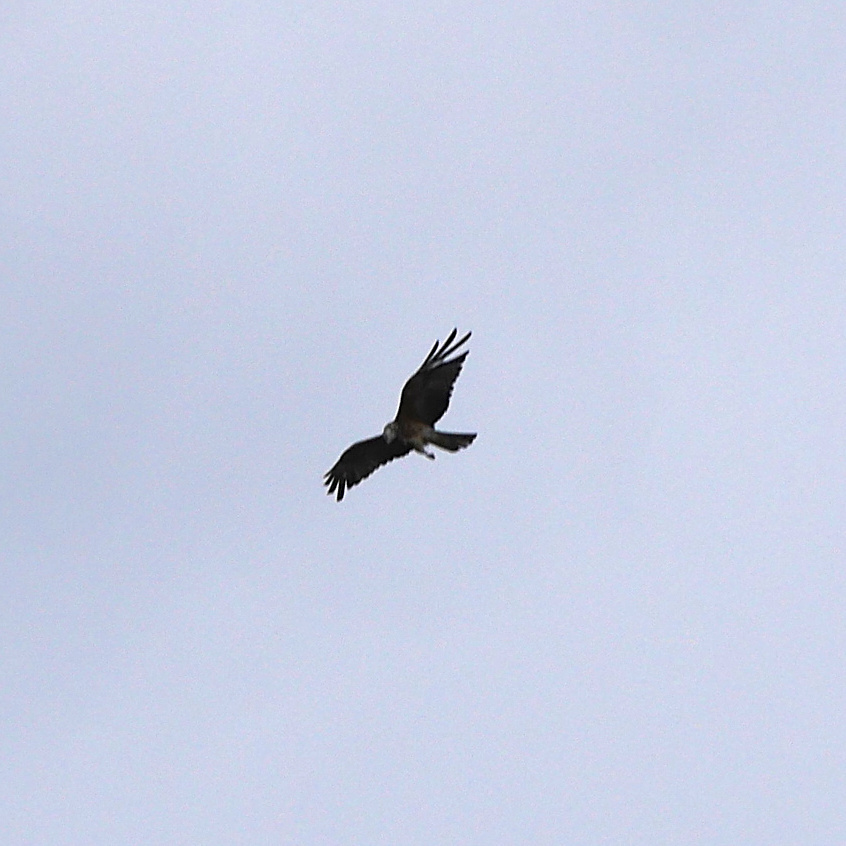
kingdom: Animalia
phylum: Chordata
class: Aves
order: Accipitriformes
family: Accipitridae
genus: Lophoictinia
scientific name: Lophoictinia isura
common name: Square-tailed kite
